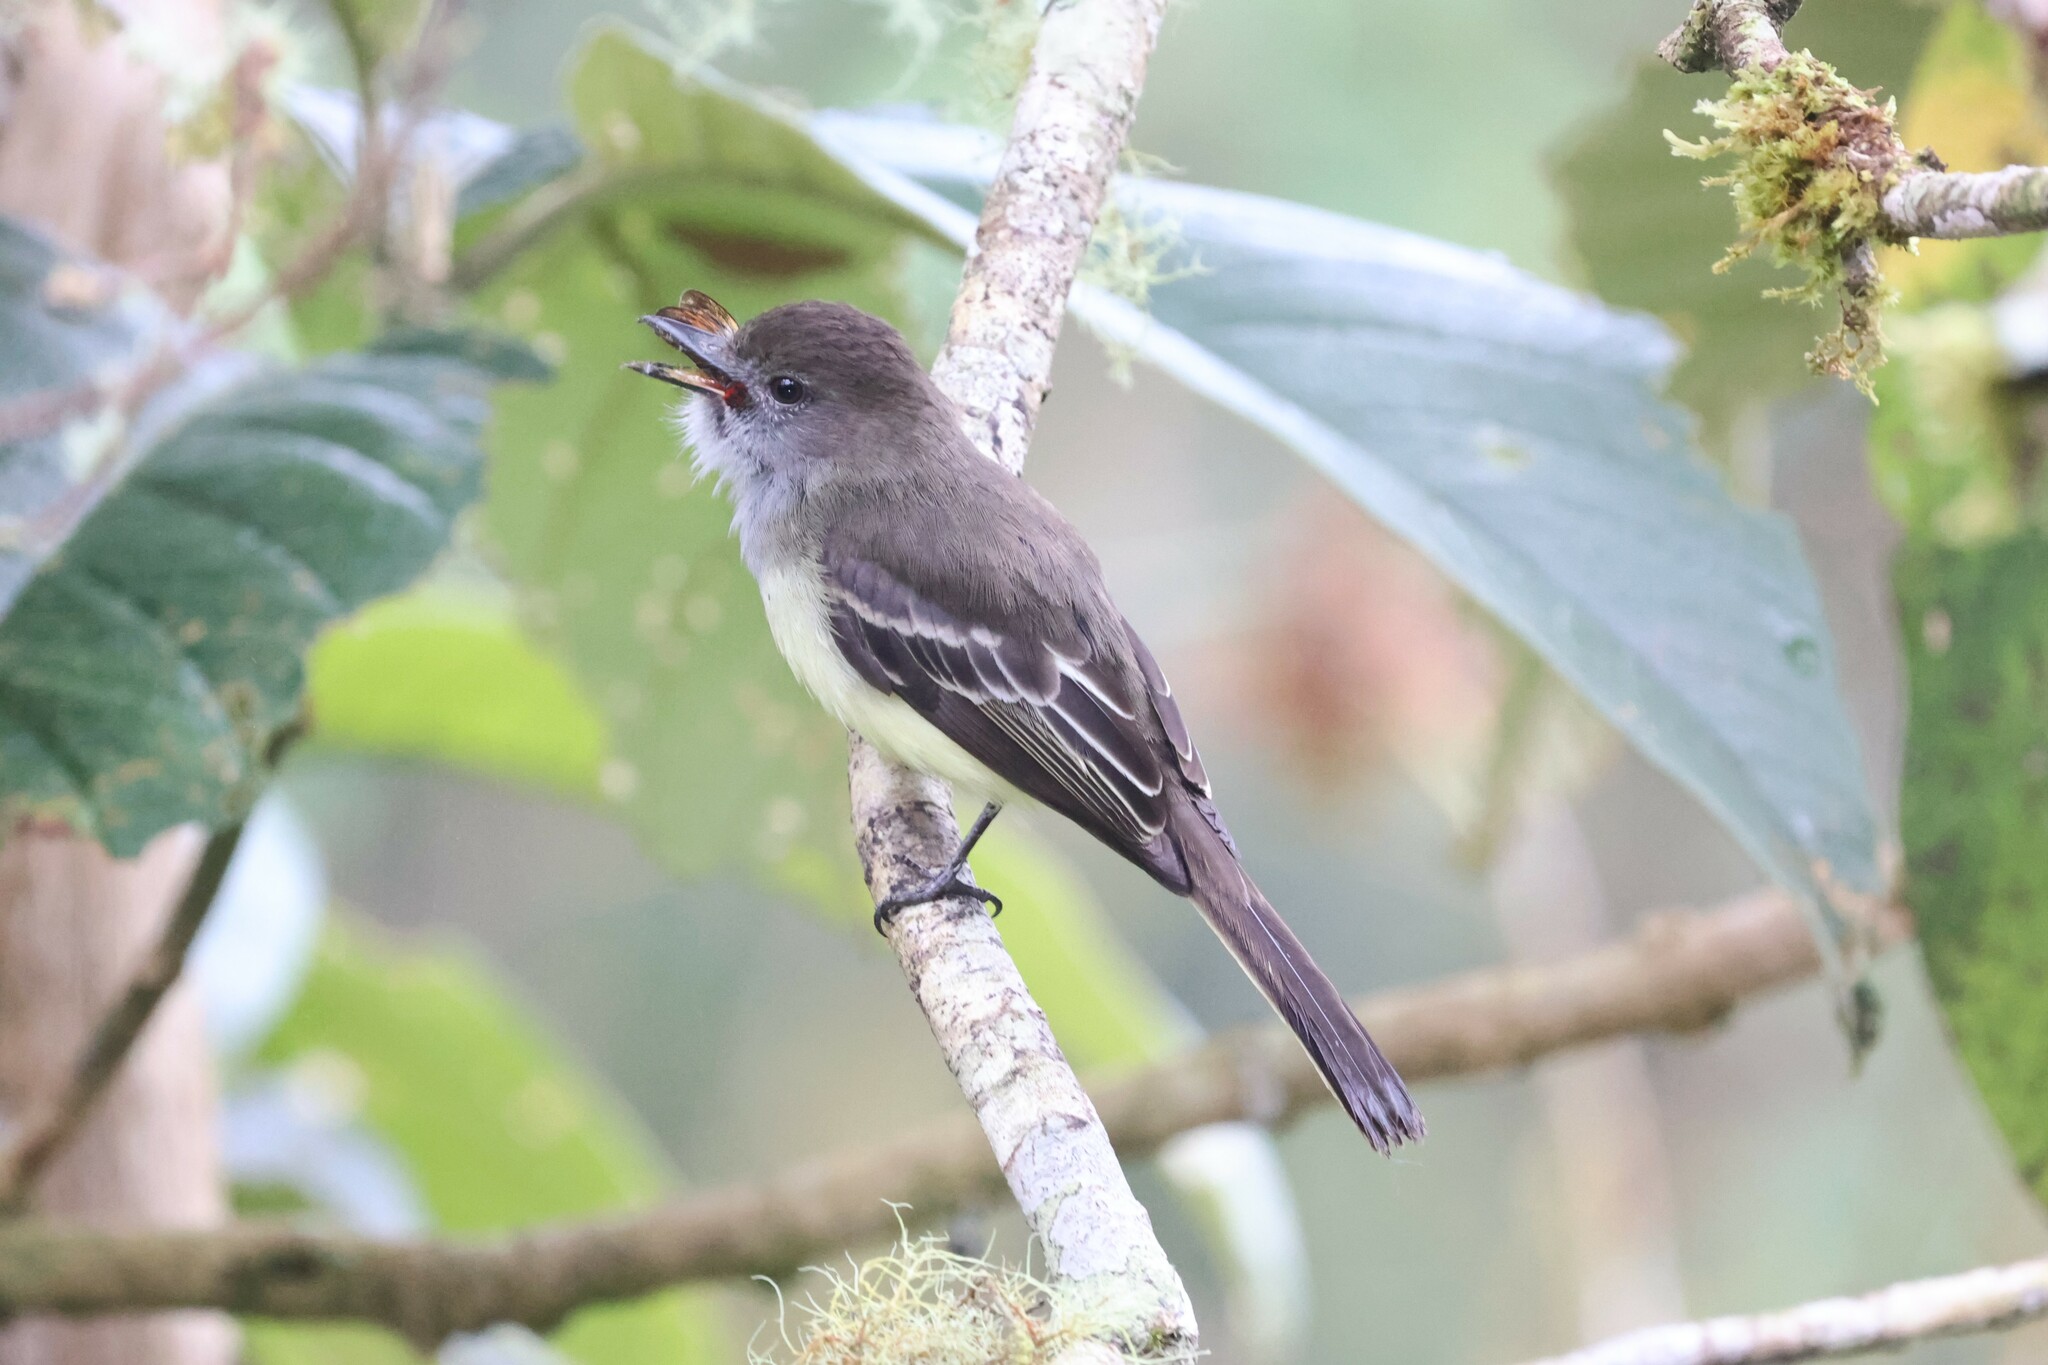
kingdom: Animalia
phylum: Chordata
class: Aves
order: Passeriformes
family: Tyrannidae
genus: Myiarchus
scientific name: Myiarchus cephalotes
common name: Pale-edged flycatcher
